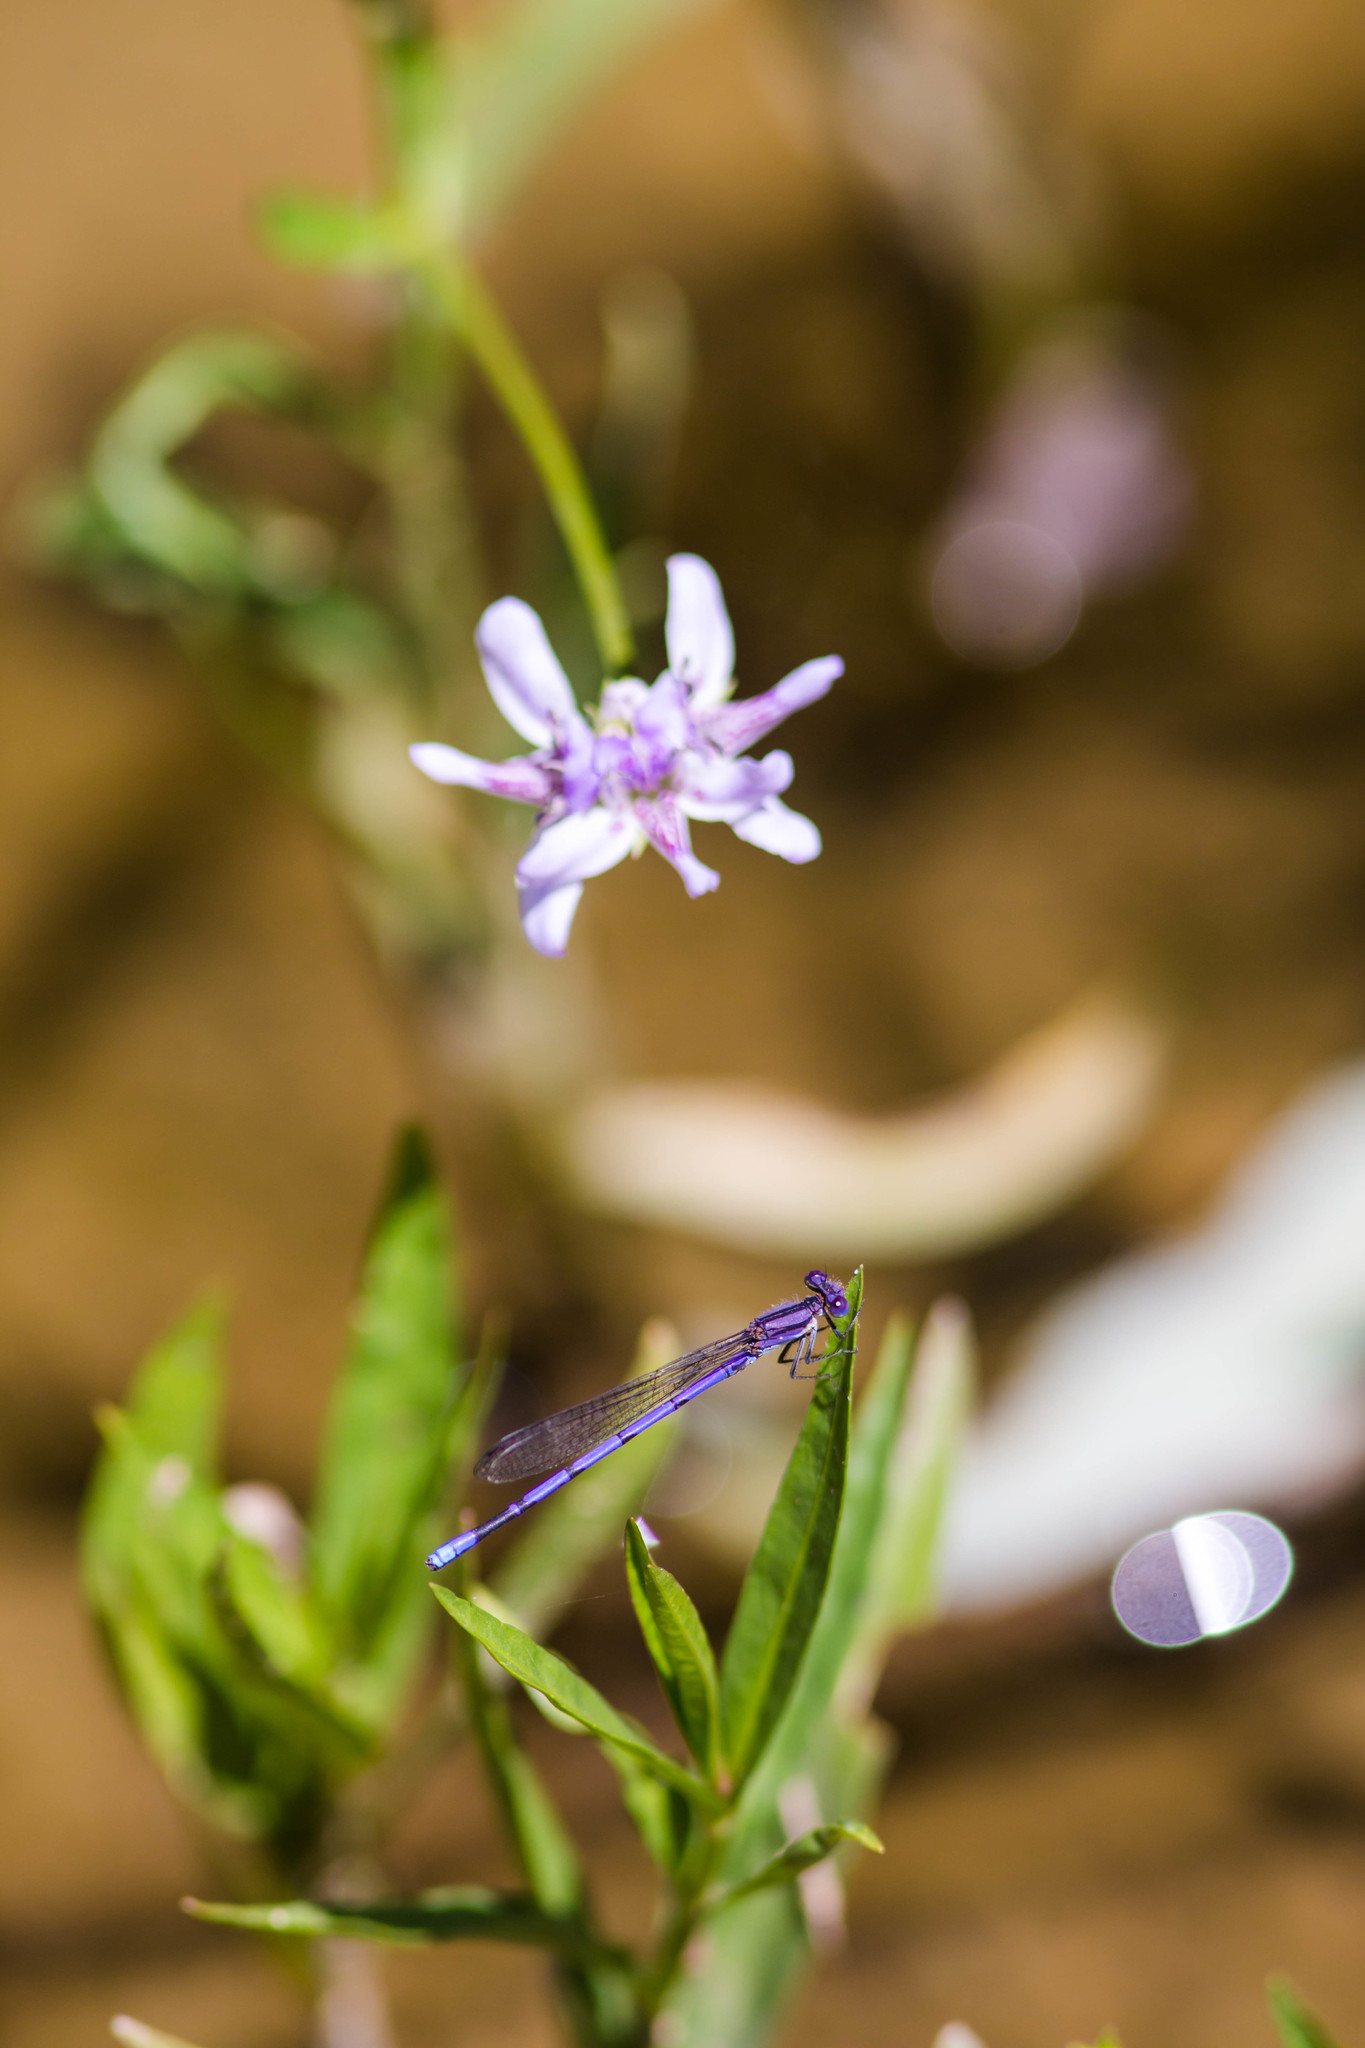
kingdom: Animalia
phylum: Arthropoda
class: Insecta
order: Odonata
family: Coenagrionidae
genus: Argia
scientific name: Argia fumipennis
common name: Variable dancer
